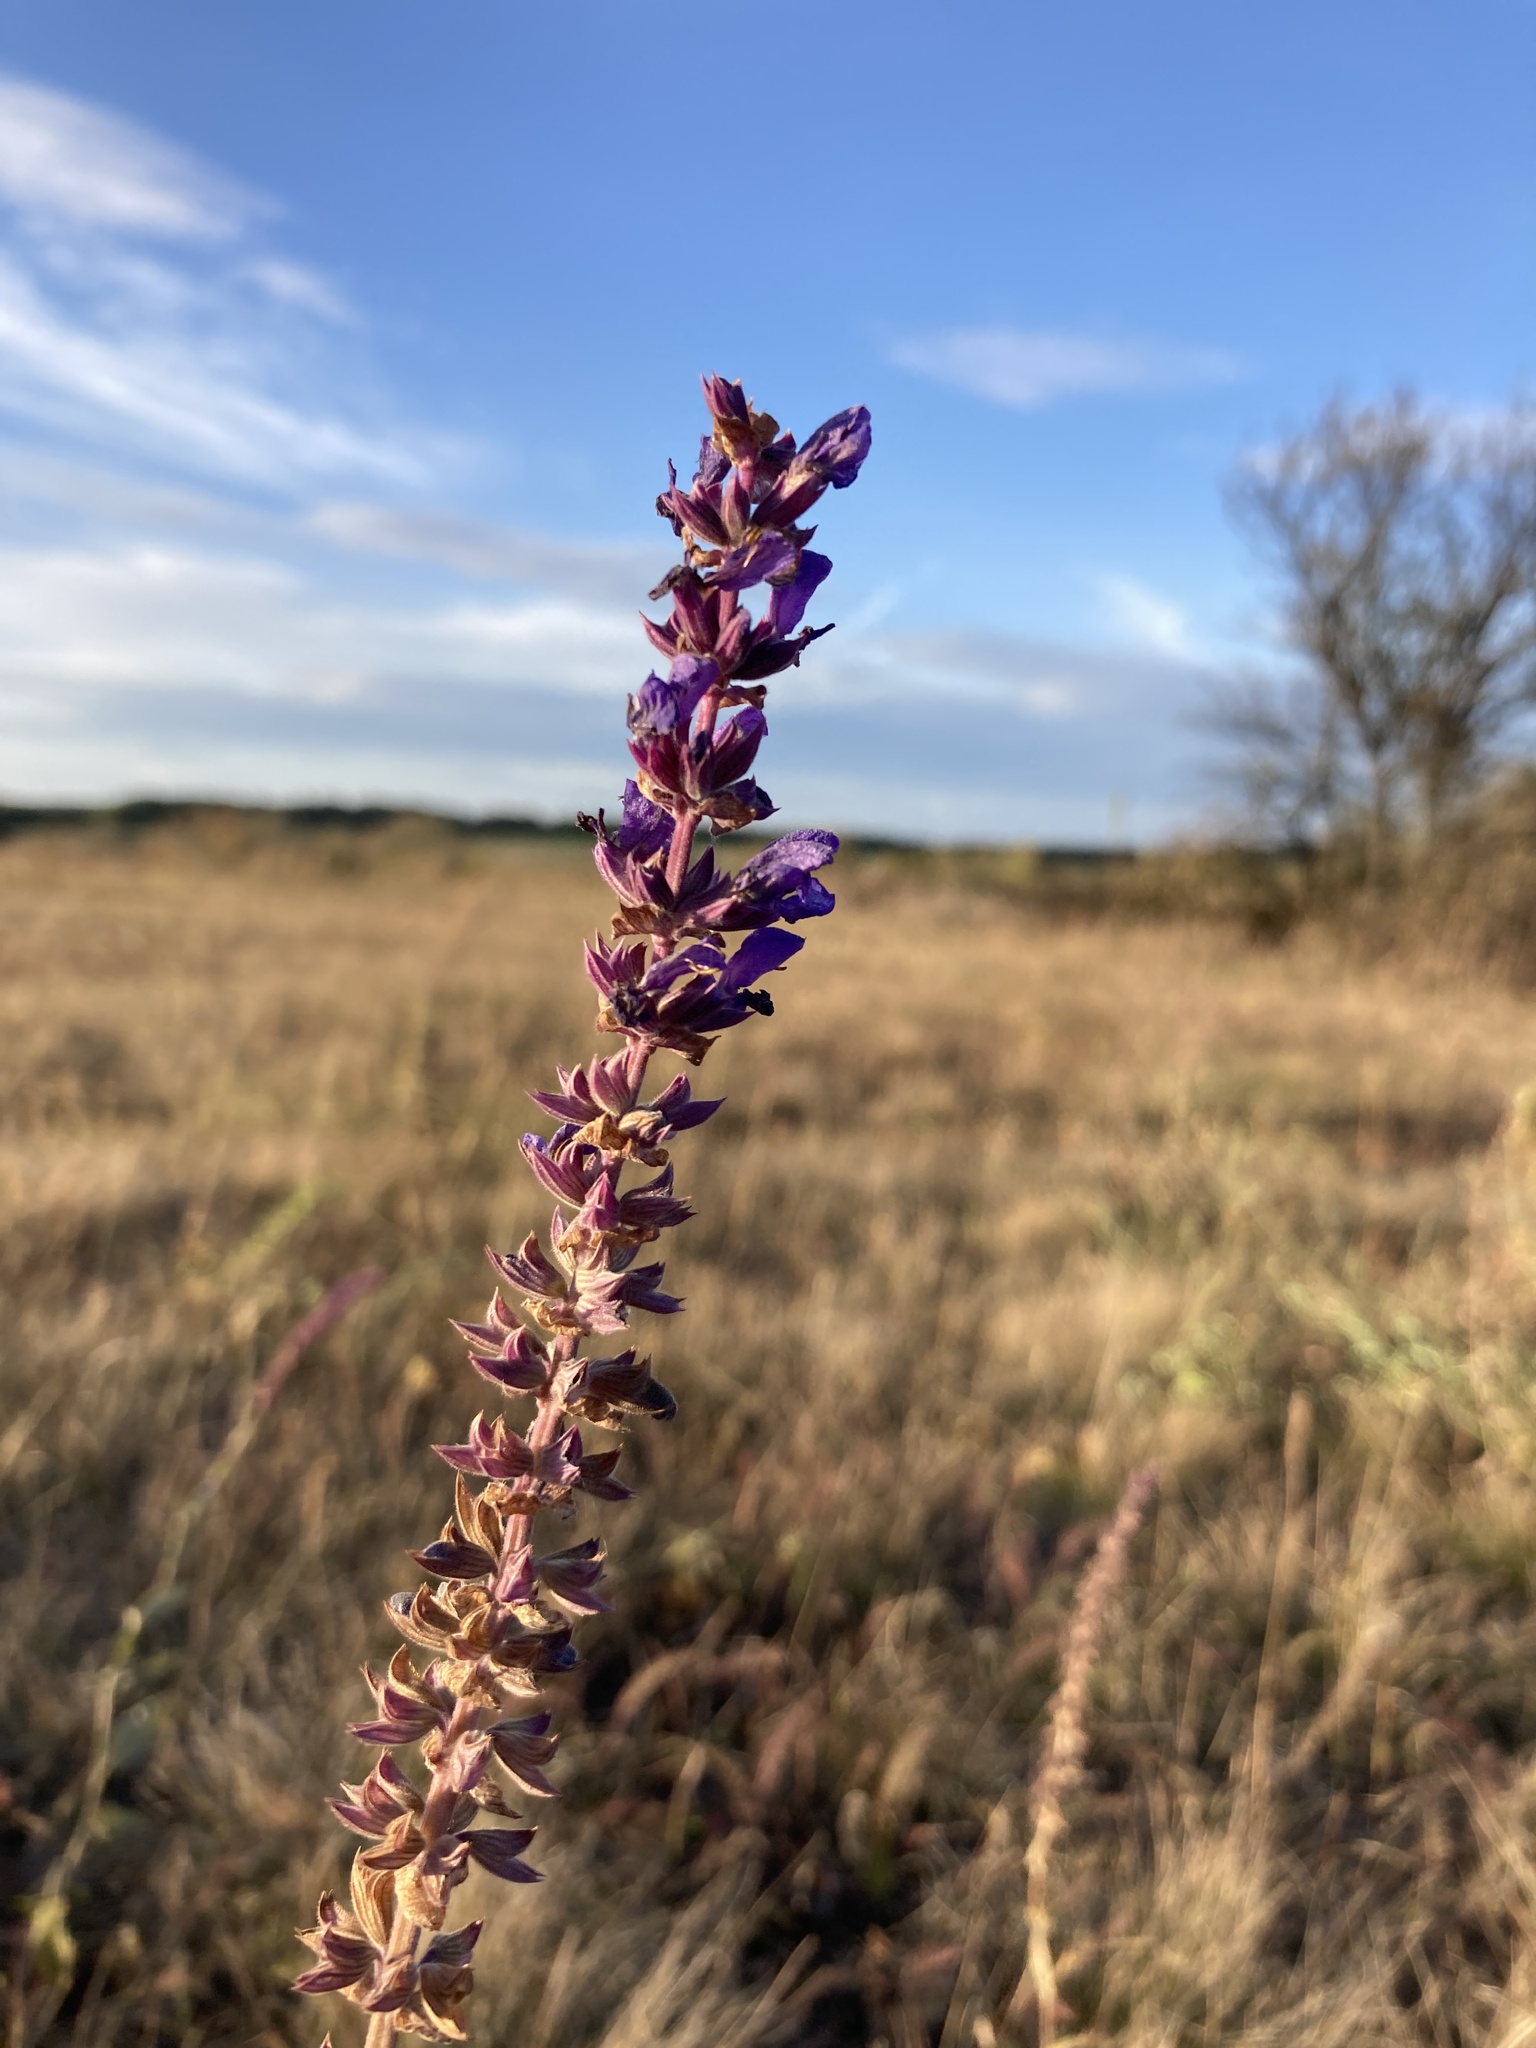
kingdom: Plantae
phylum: Tracheophyta
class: Magnoliopsida
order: Lamiales
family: Lamiaceae
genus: Salvia
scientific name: Salvia nemorosa
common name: Balkan clary
